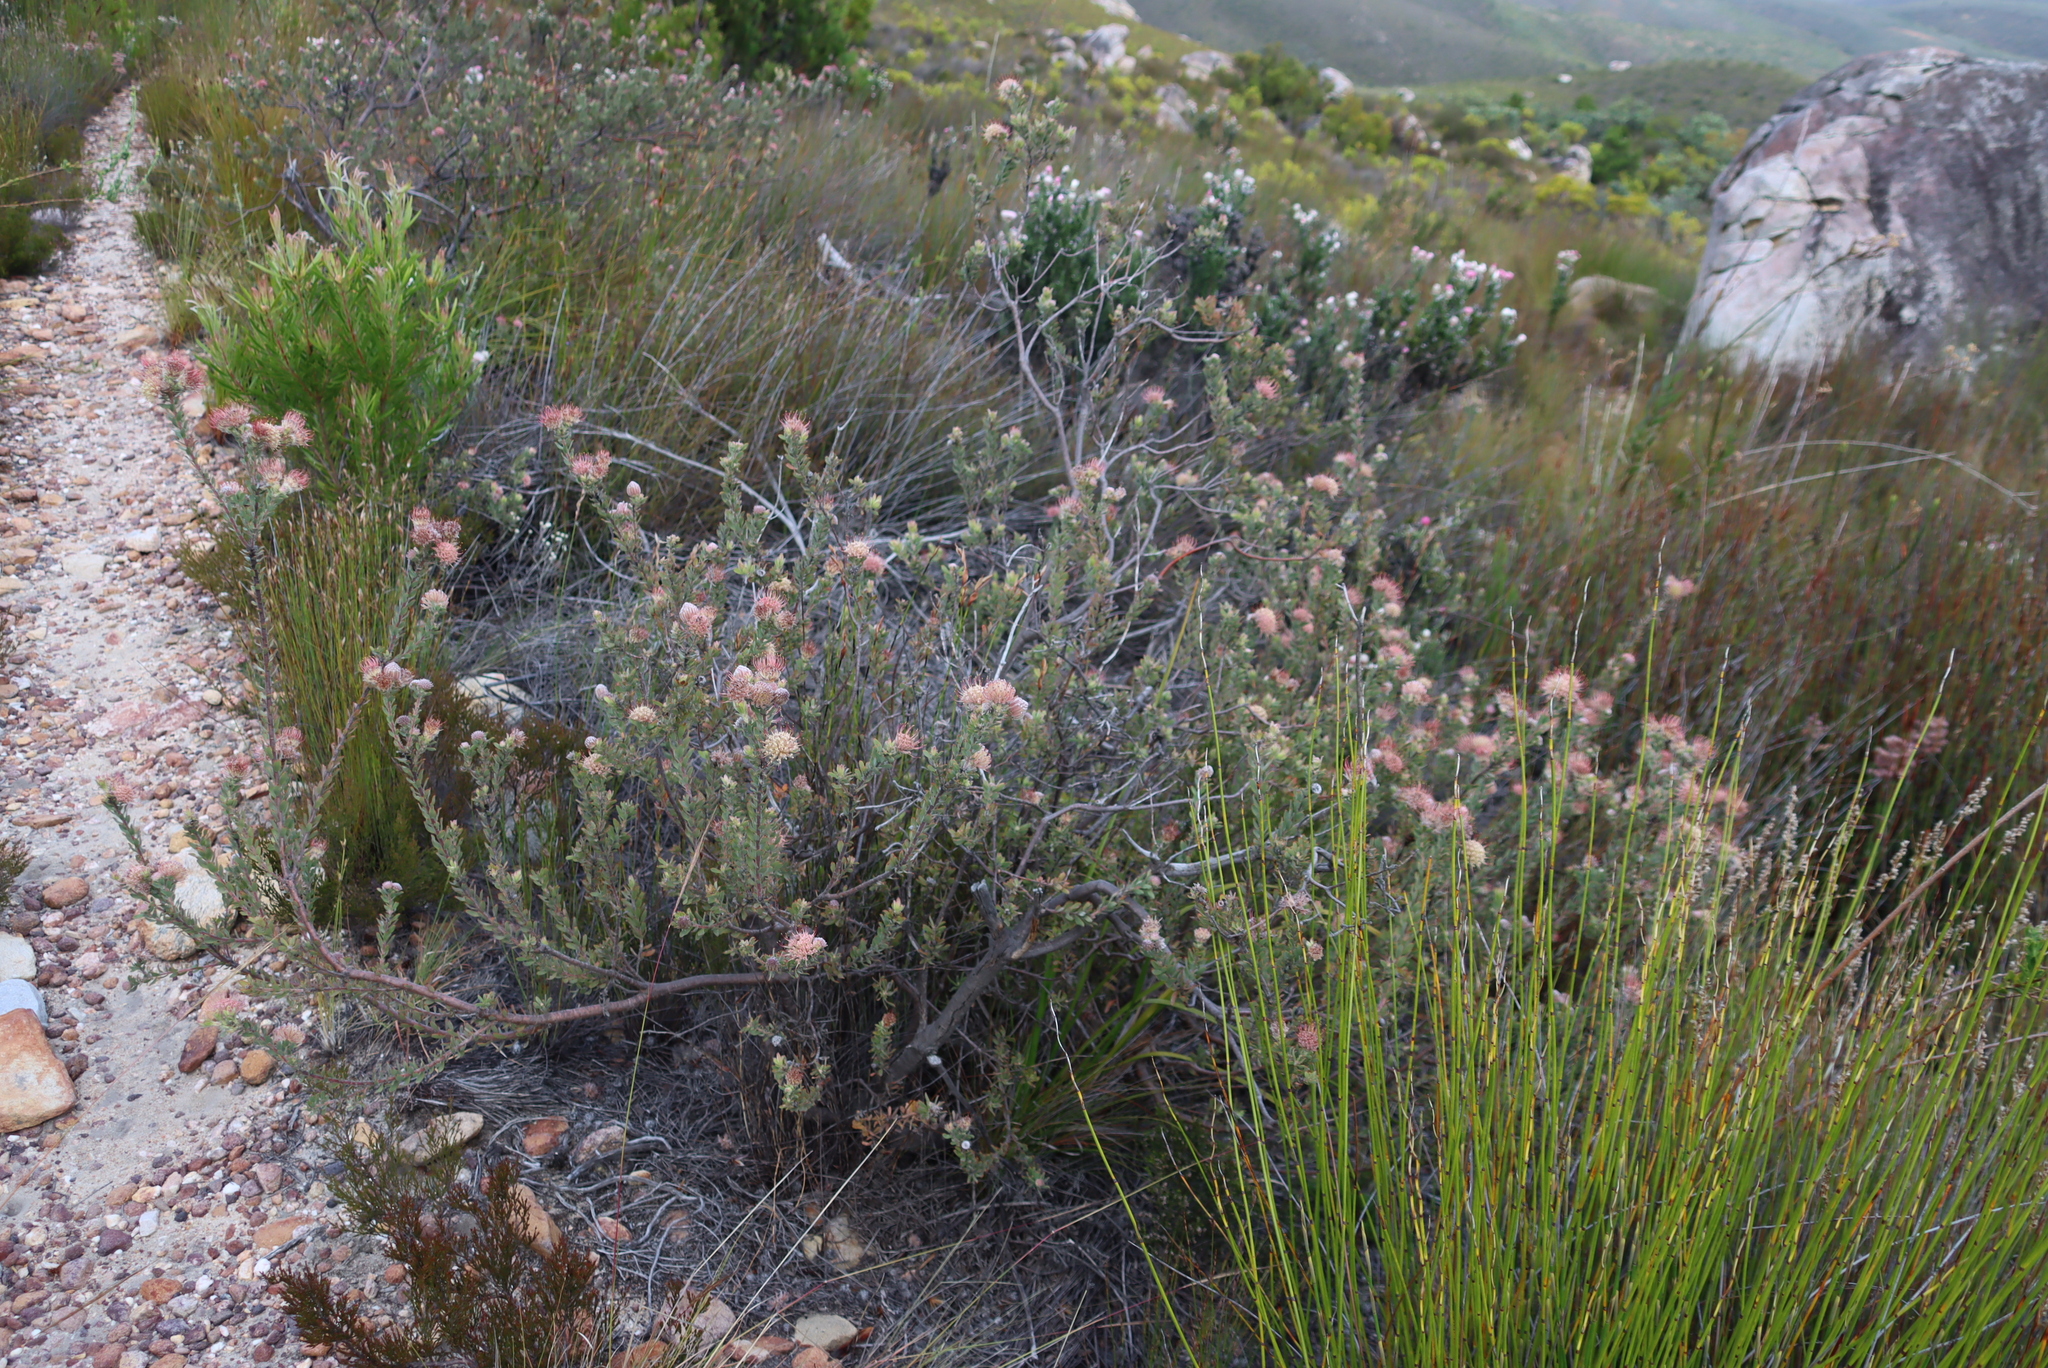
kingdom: Plantae
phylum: Tracheophyta
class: Magnoliopsida
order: Proteales
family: Proteaceae
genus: Leucospermum
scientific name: Leucospermum calligerum
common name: Arid pincushion
